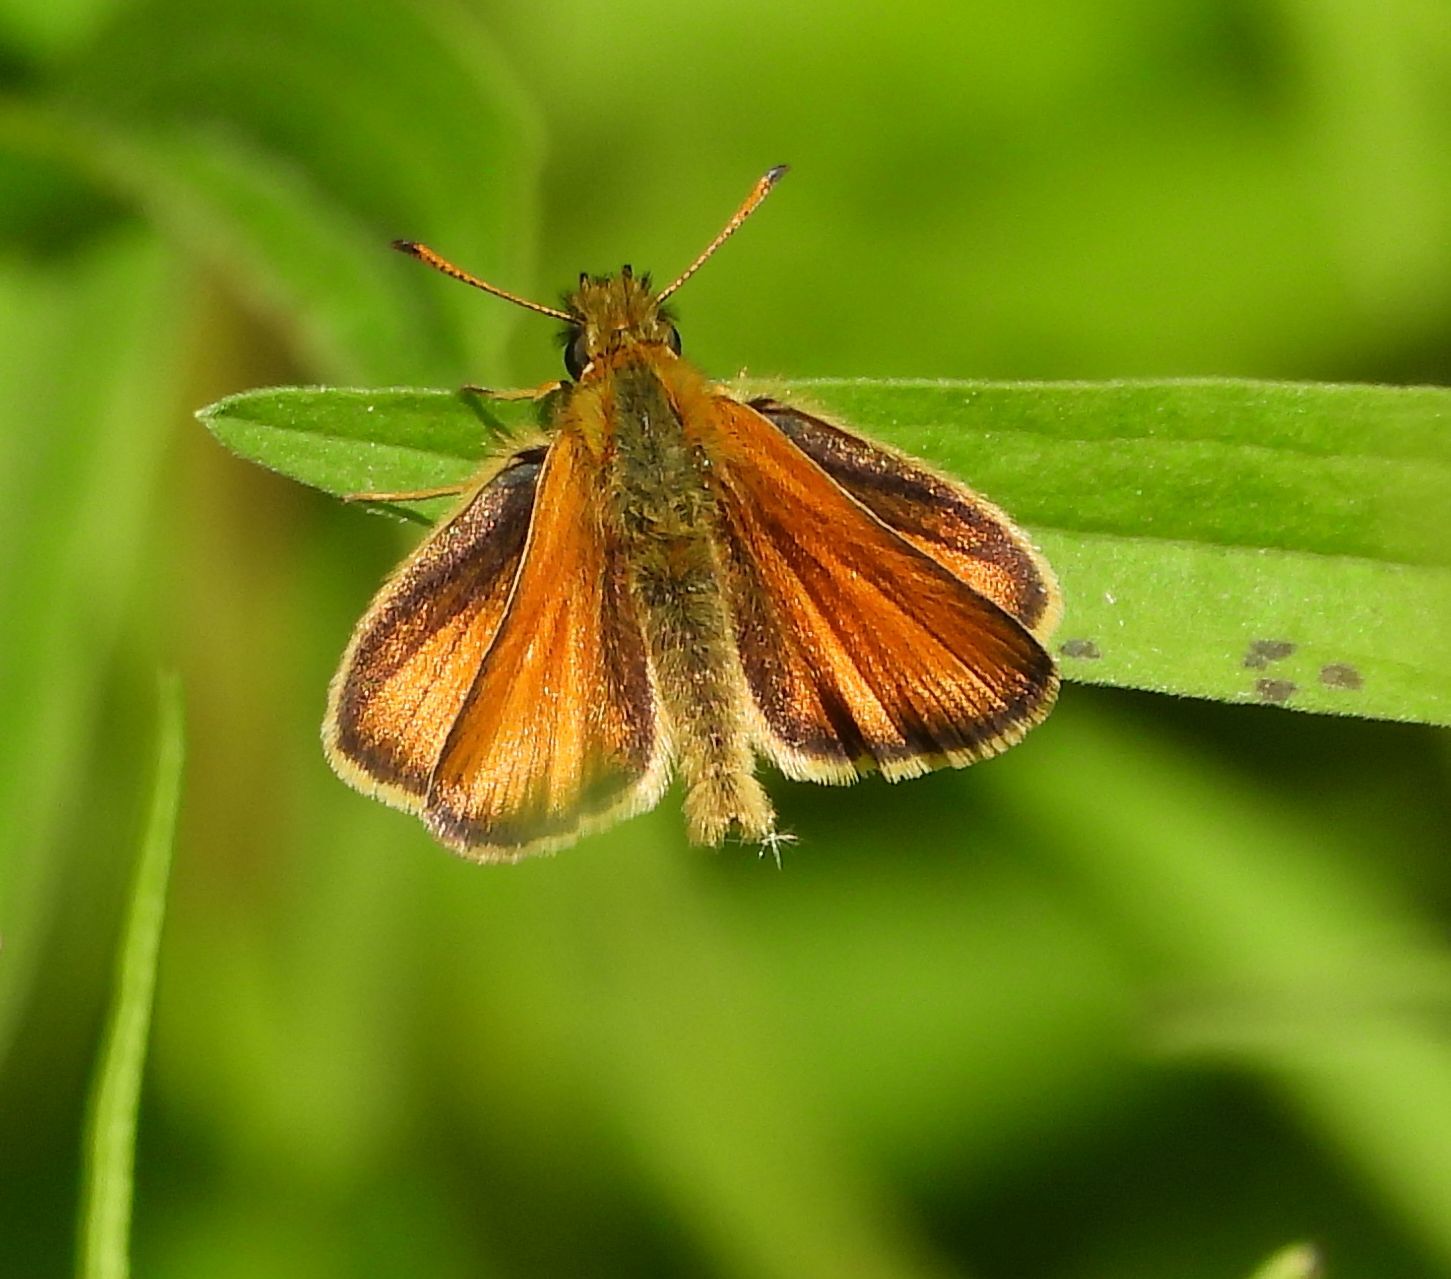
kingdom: Animalia
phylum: Arthropoda
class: Insecta
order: Lepidoptera
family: Hesperiidae
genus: Thymelicus
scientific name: Thymelicus lineola
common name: Essex skipper
